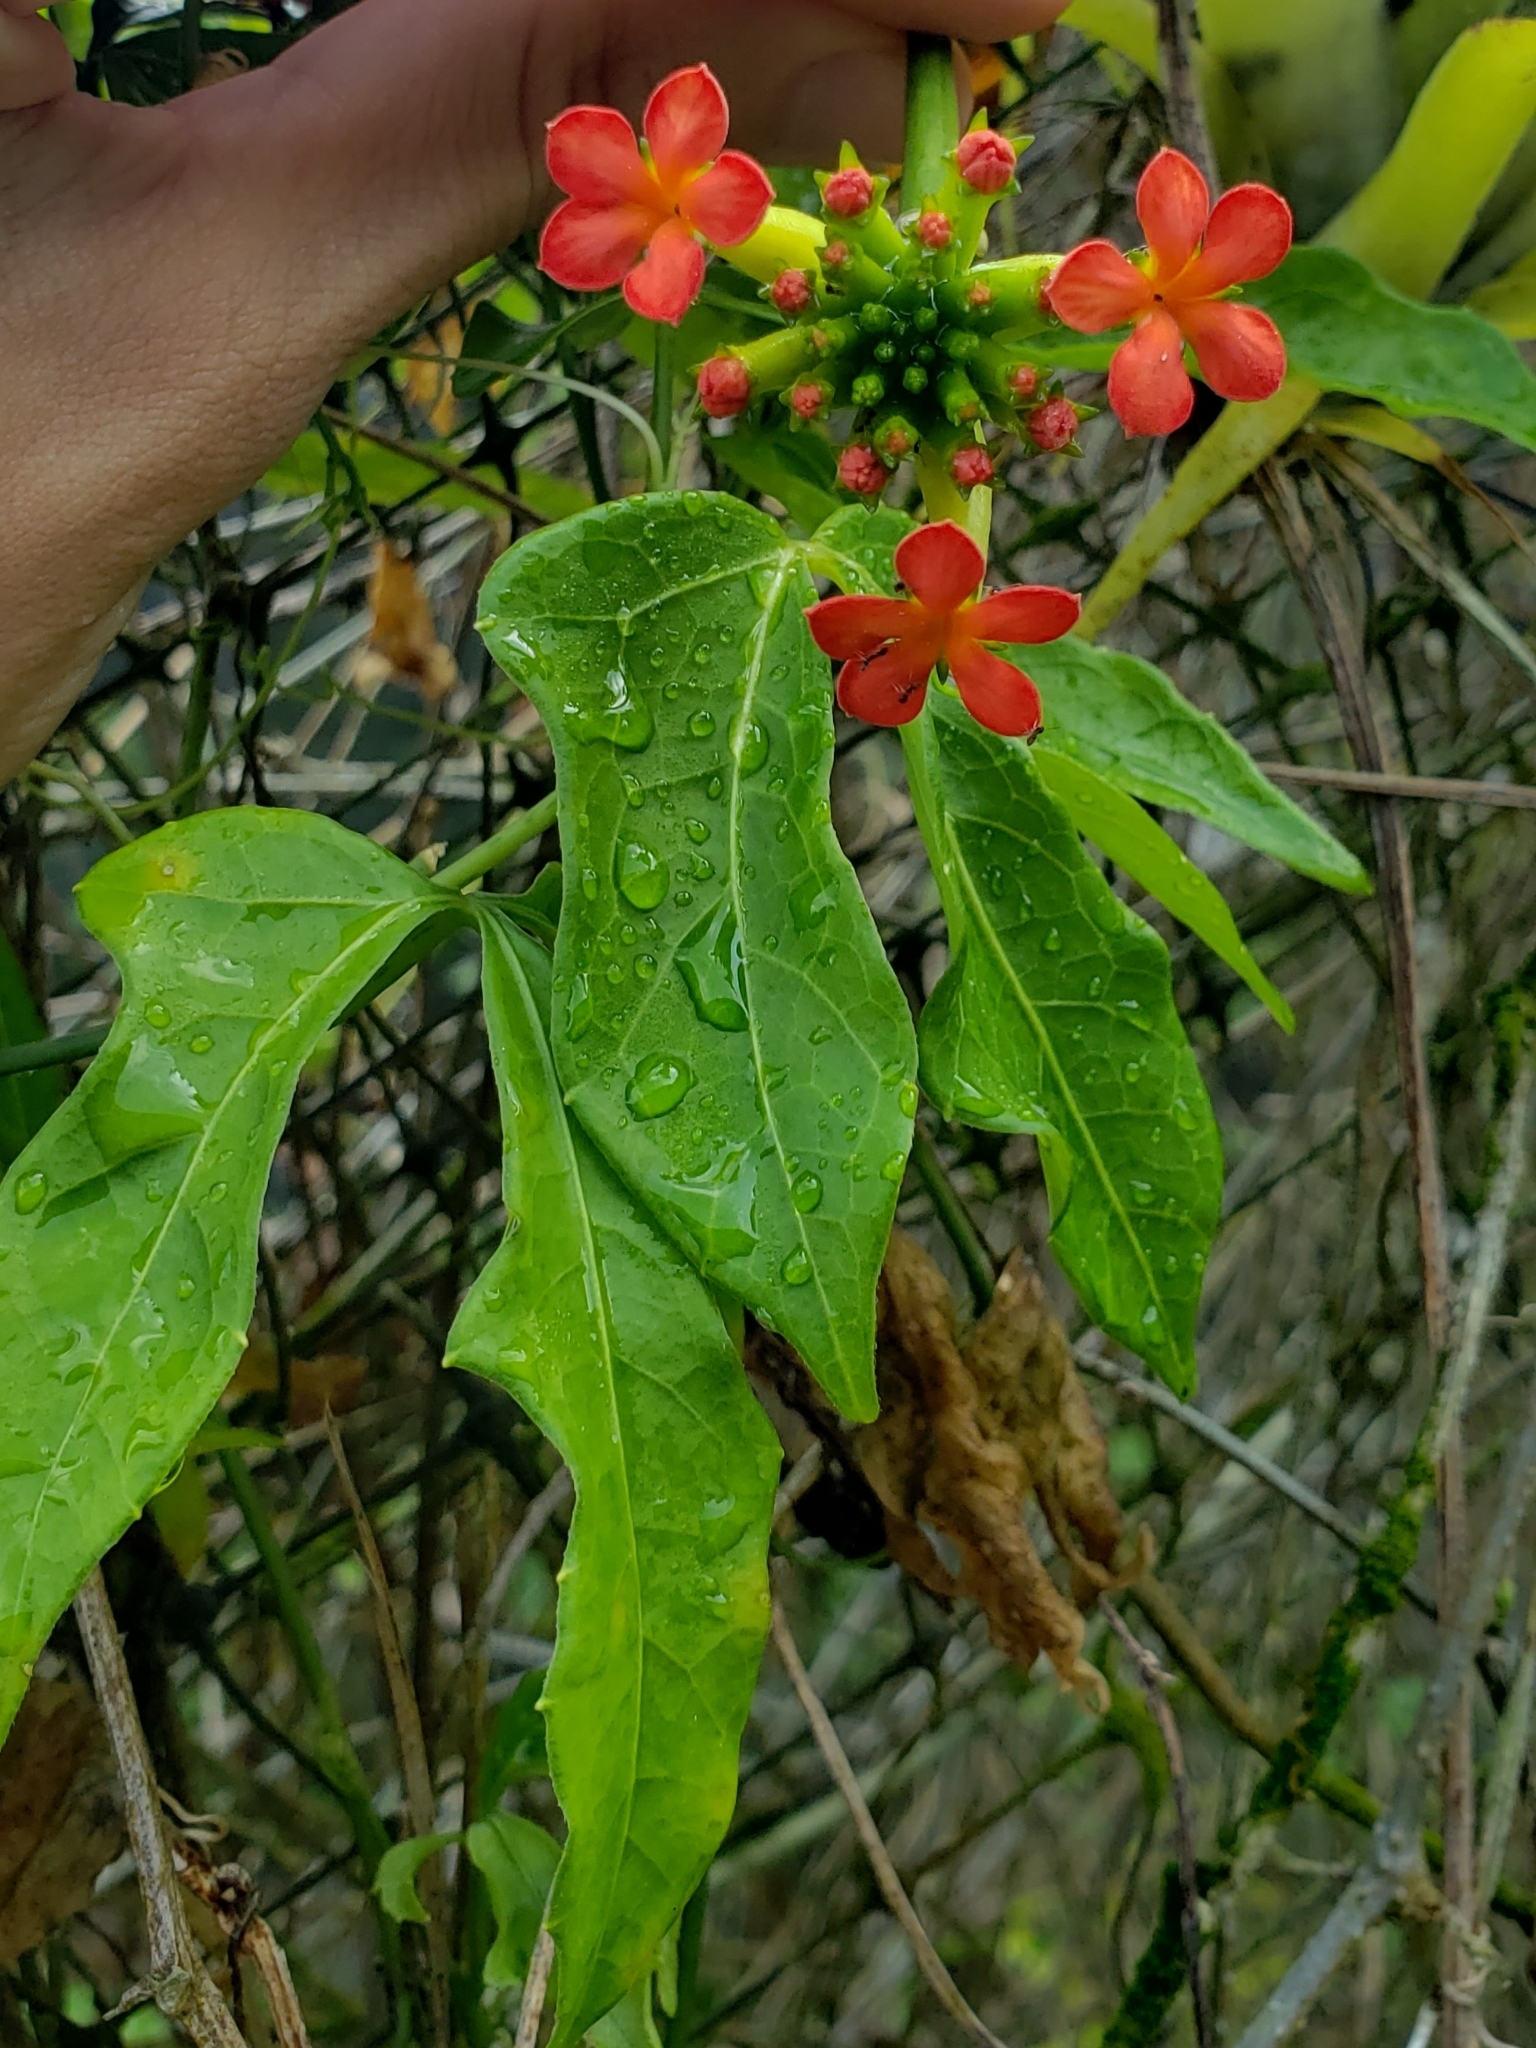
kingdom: Plantae
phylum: Tracheophyta
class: Magnoliopsida
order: Cucurbitales
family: Cucurbitaceae
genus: Psiguria
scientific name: Psiguria warscewiczii
